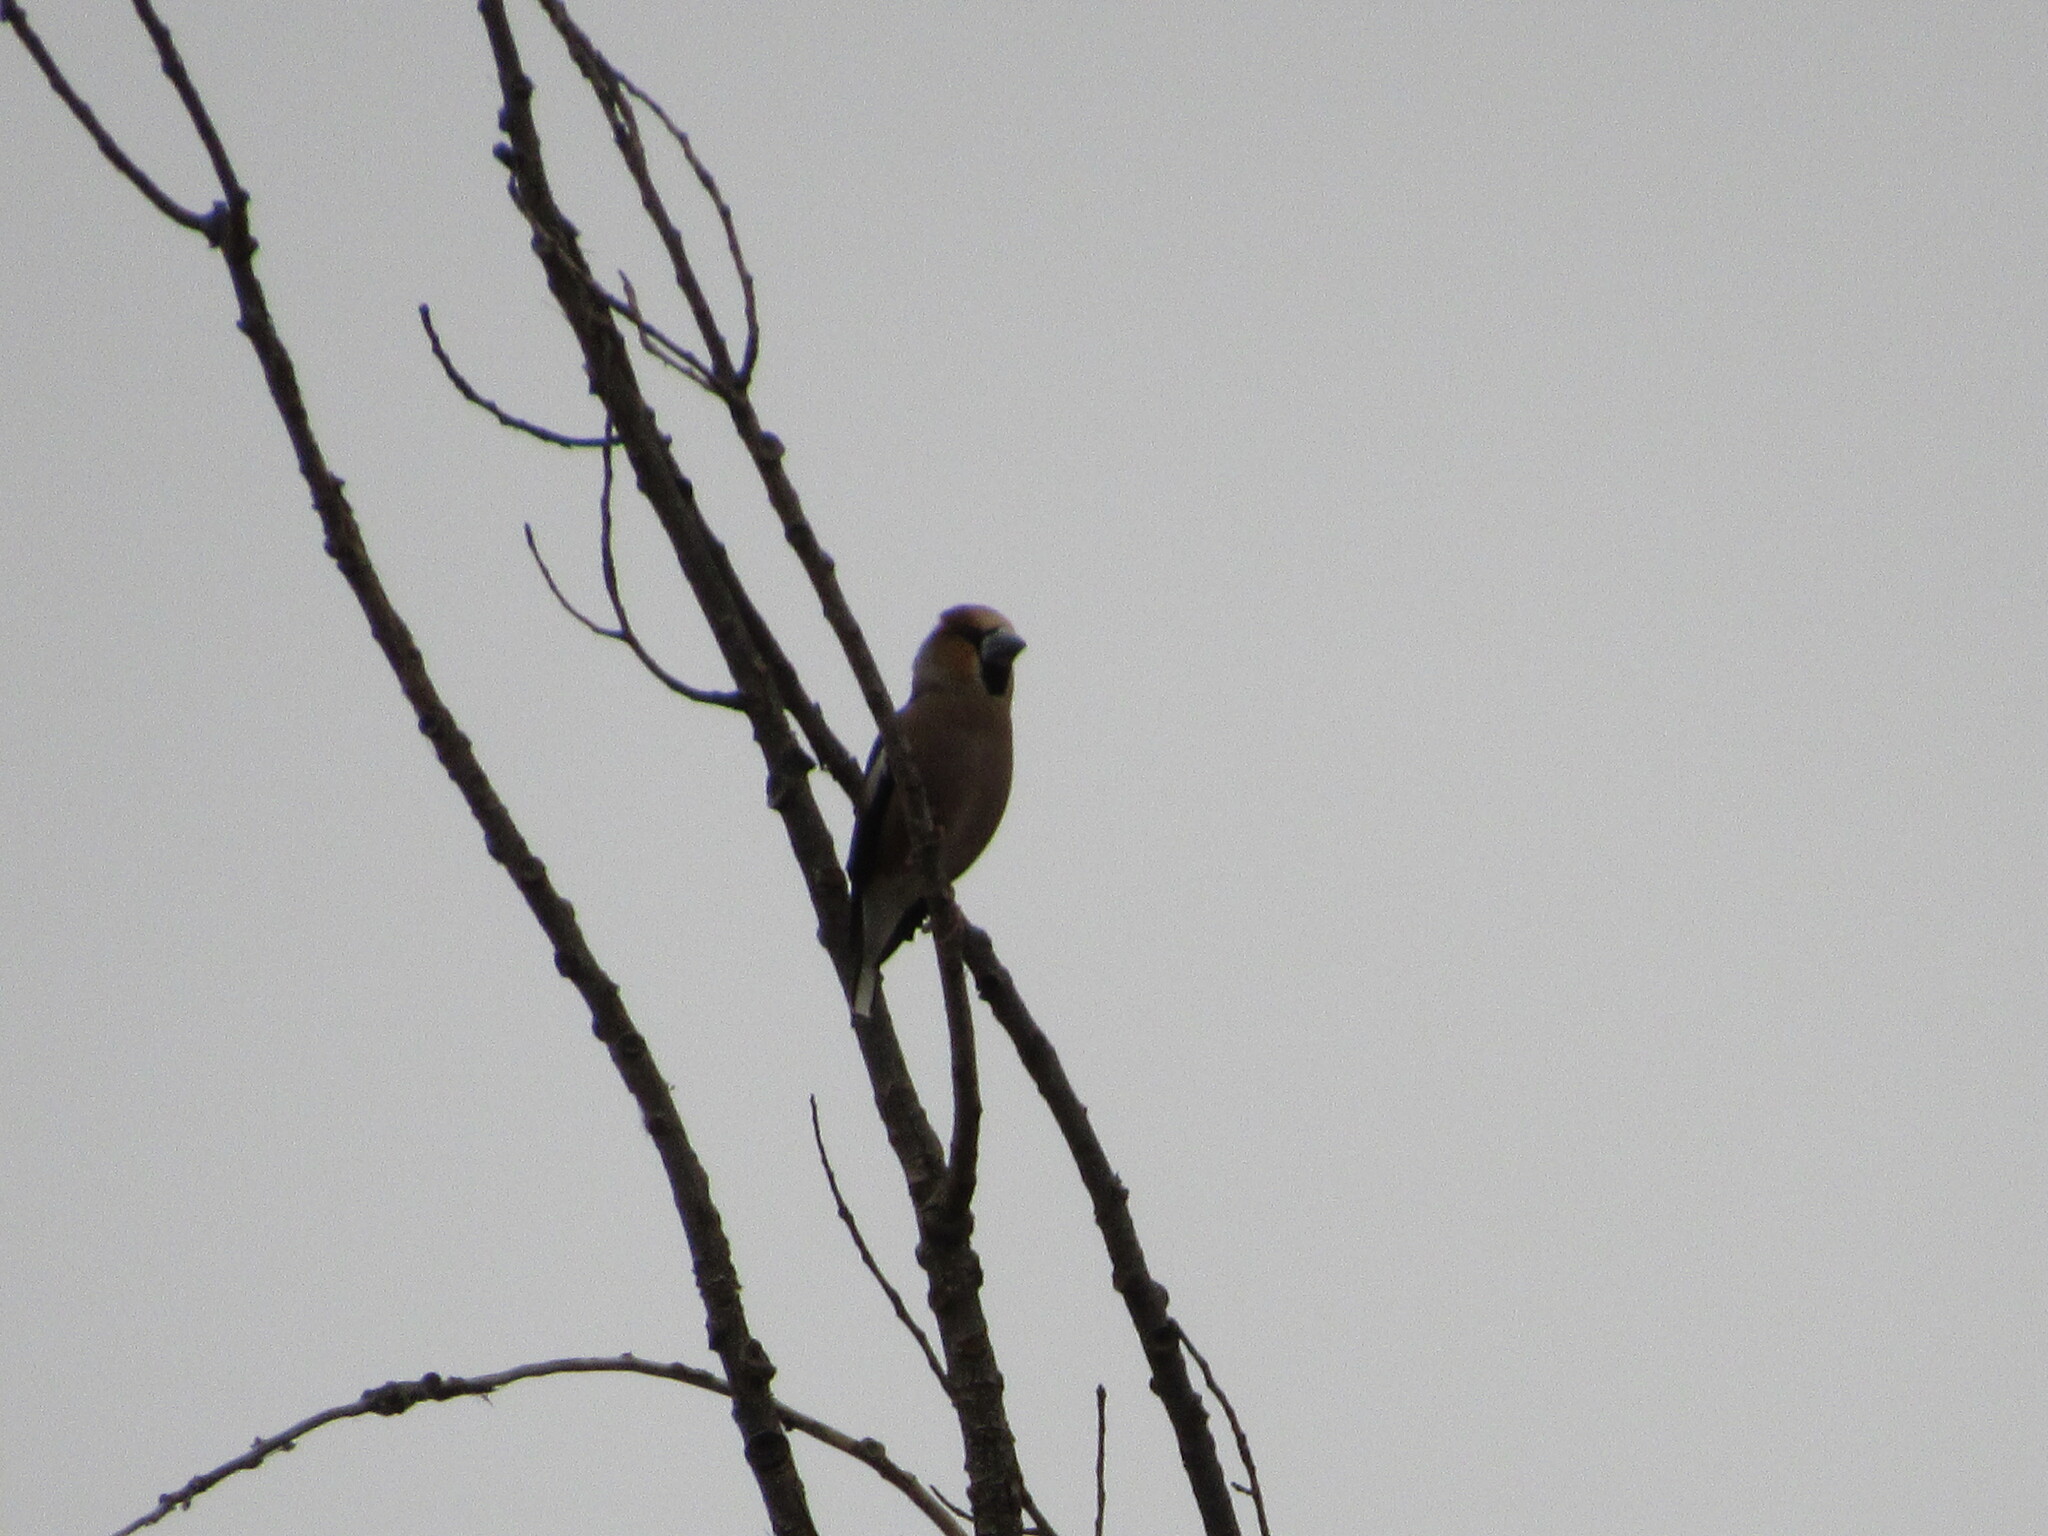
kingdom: Animalia
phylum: Chordata
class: Aves
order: Passeriformes
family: Fringillidae
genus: Coccothraustes
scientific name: Coccothraustes coccothraustes
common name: Hawfinch
